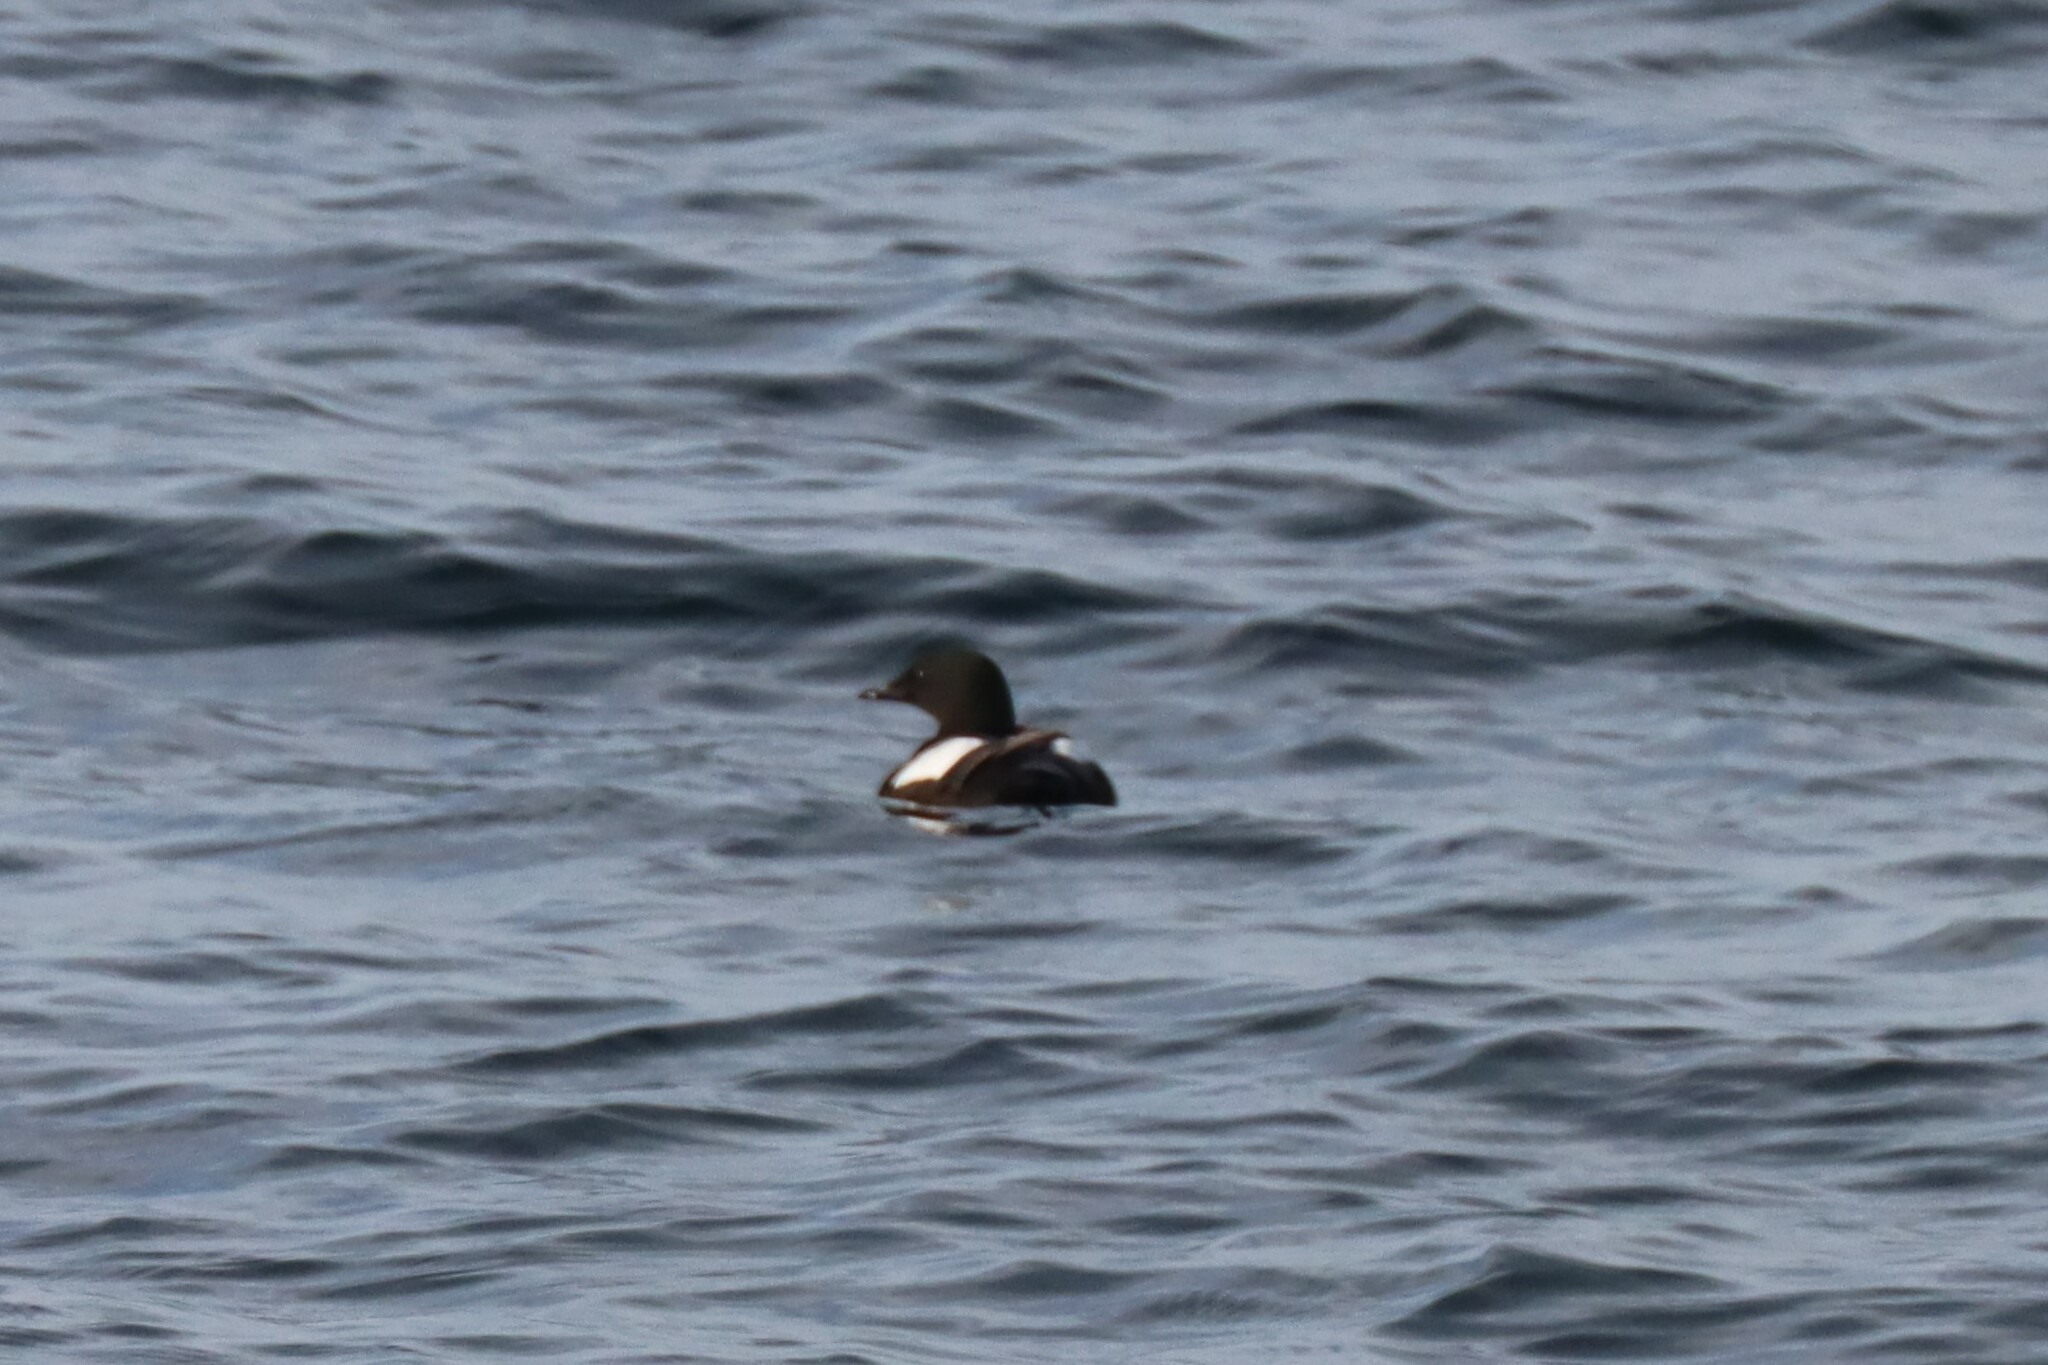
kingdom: Animalia
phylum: Chordata
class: Aves
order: Charadriiformes
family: Alcidae
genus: Cepphus
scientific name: Cepphus grylle
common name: Black guillemot
